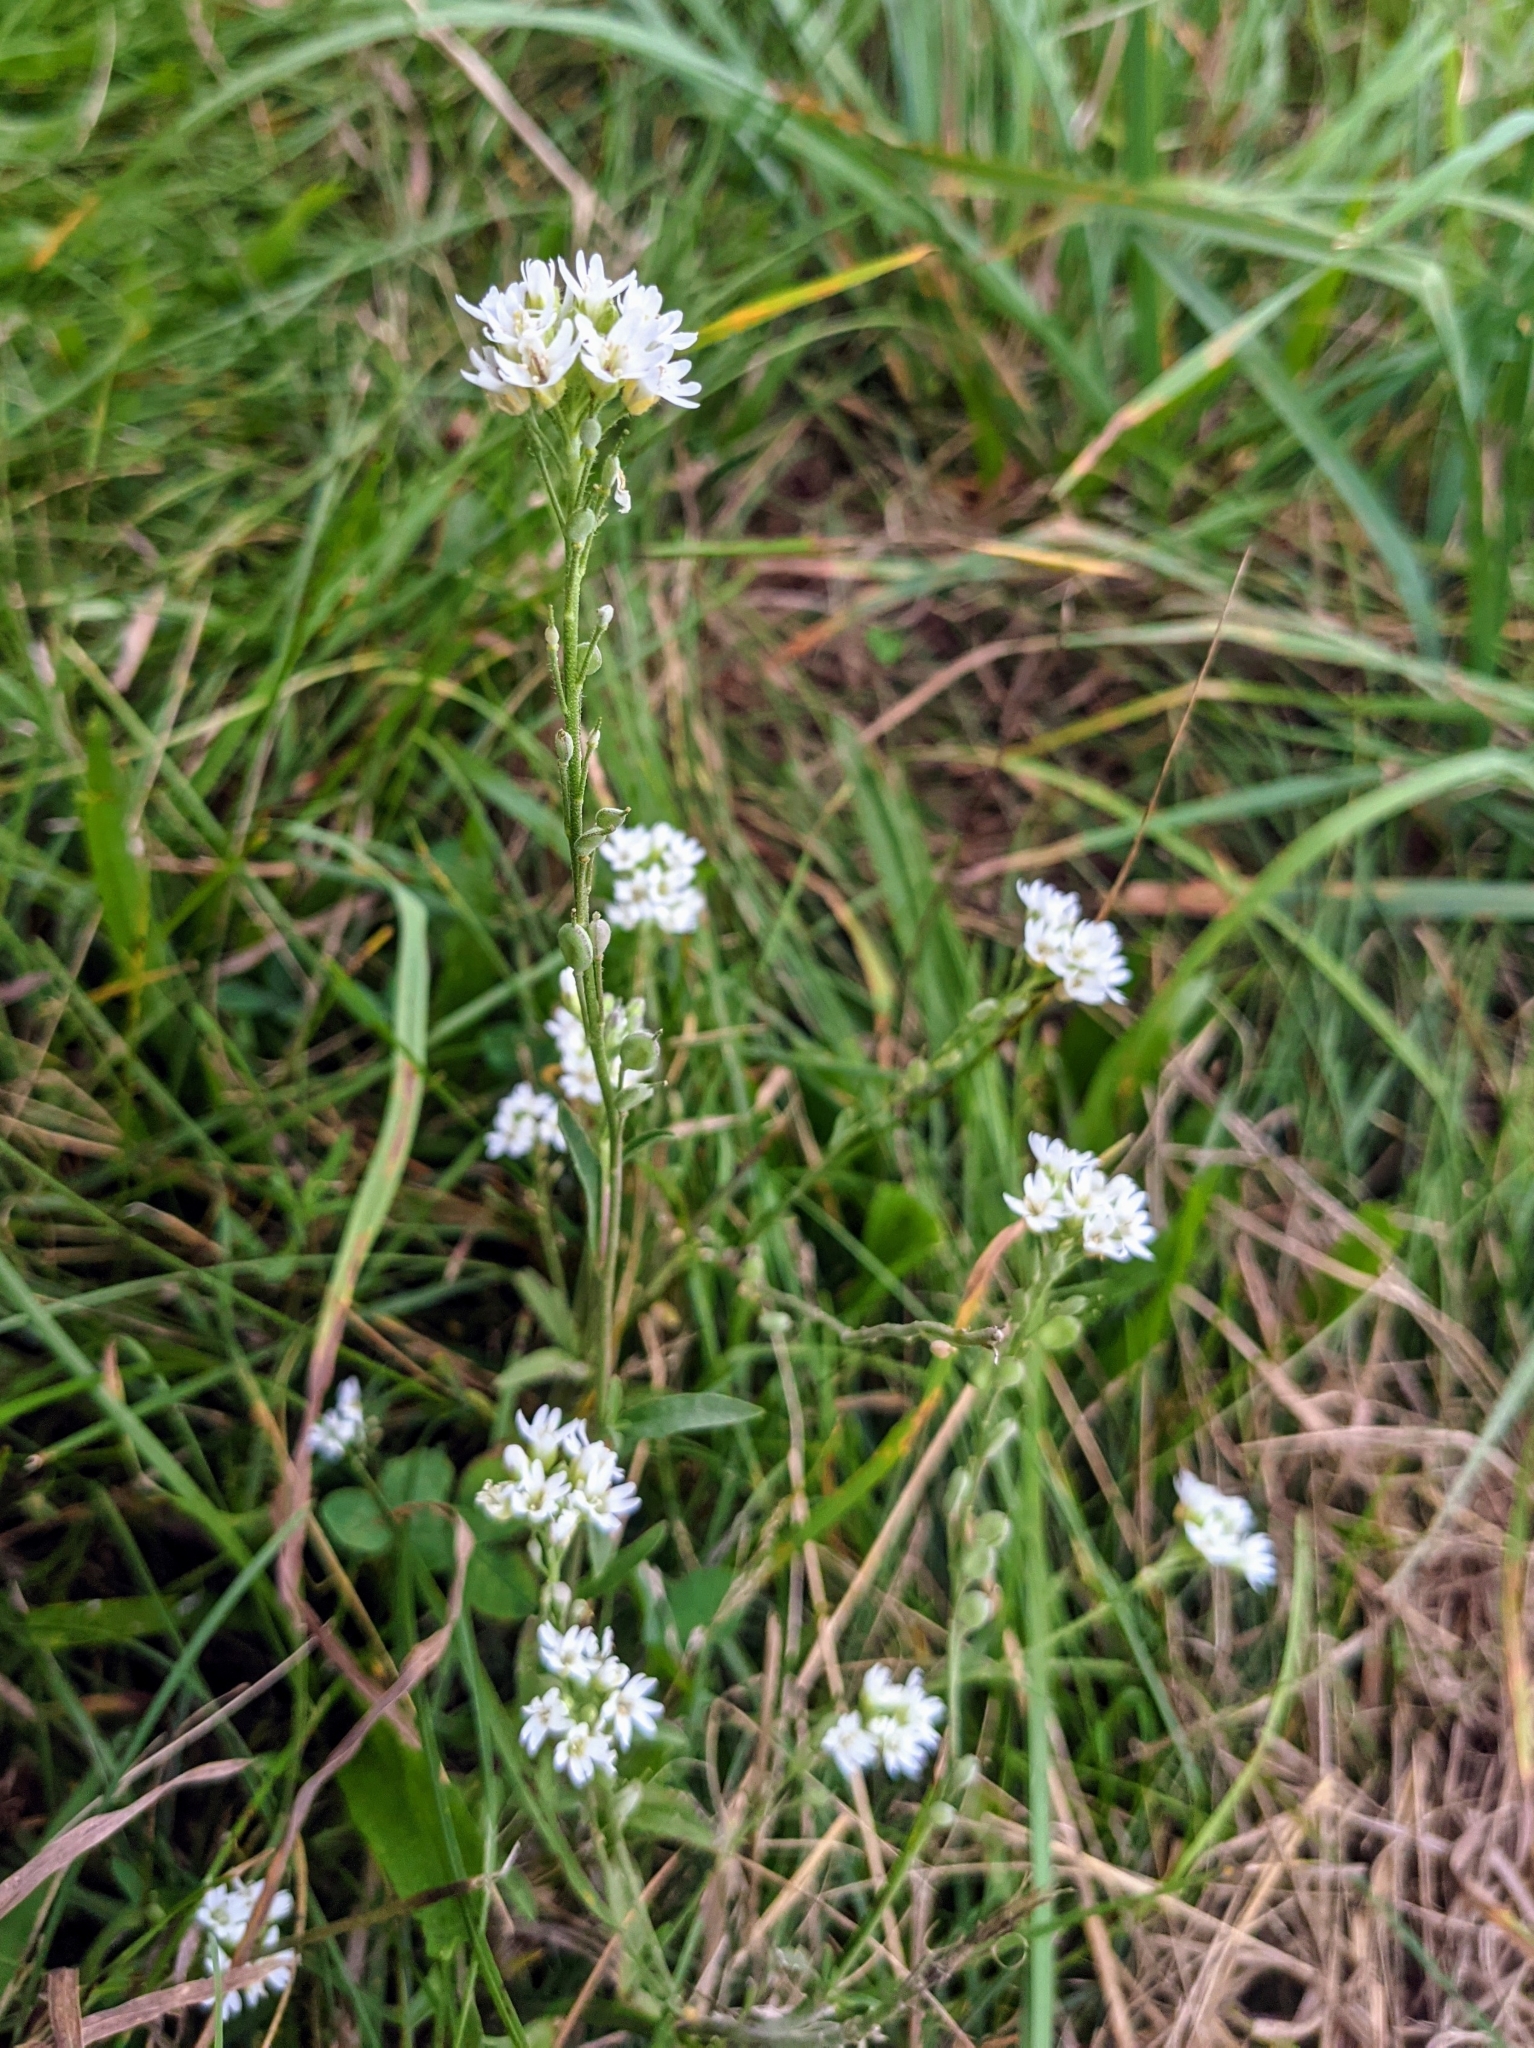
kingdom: Plantae
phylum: Tracheophyta
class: Magnoliopsida
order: Brassicales
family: Brassicaceae
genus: Berteroa
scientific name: Berteroa incana
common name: Hoary alison
